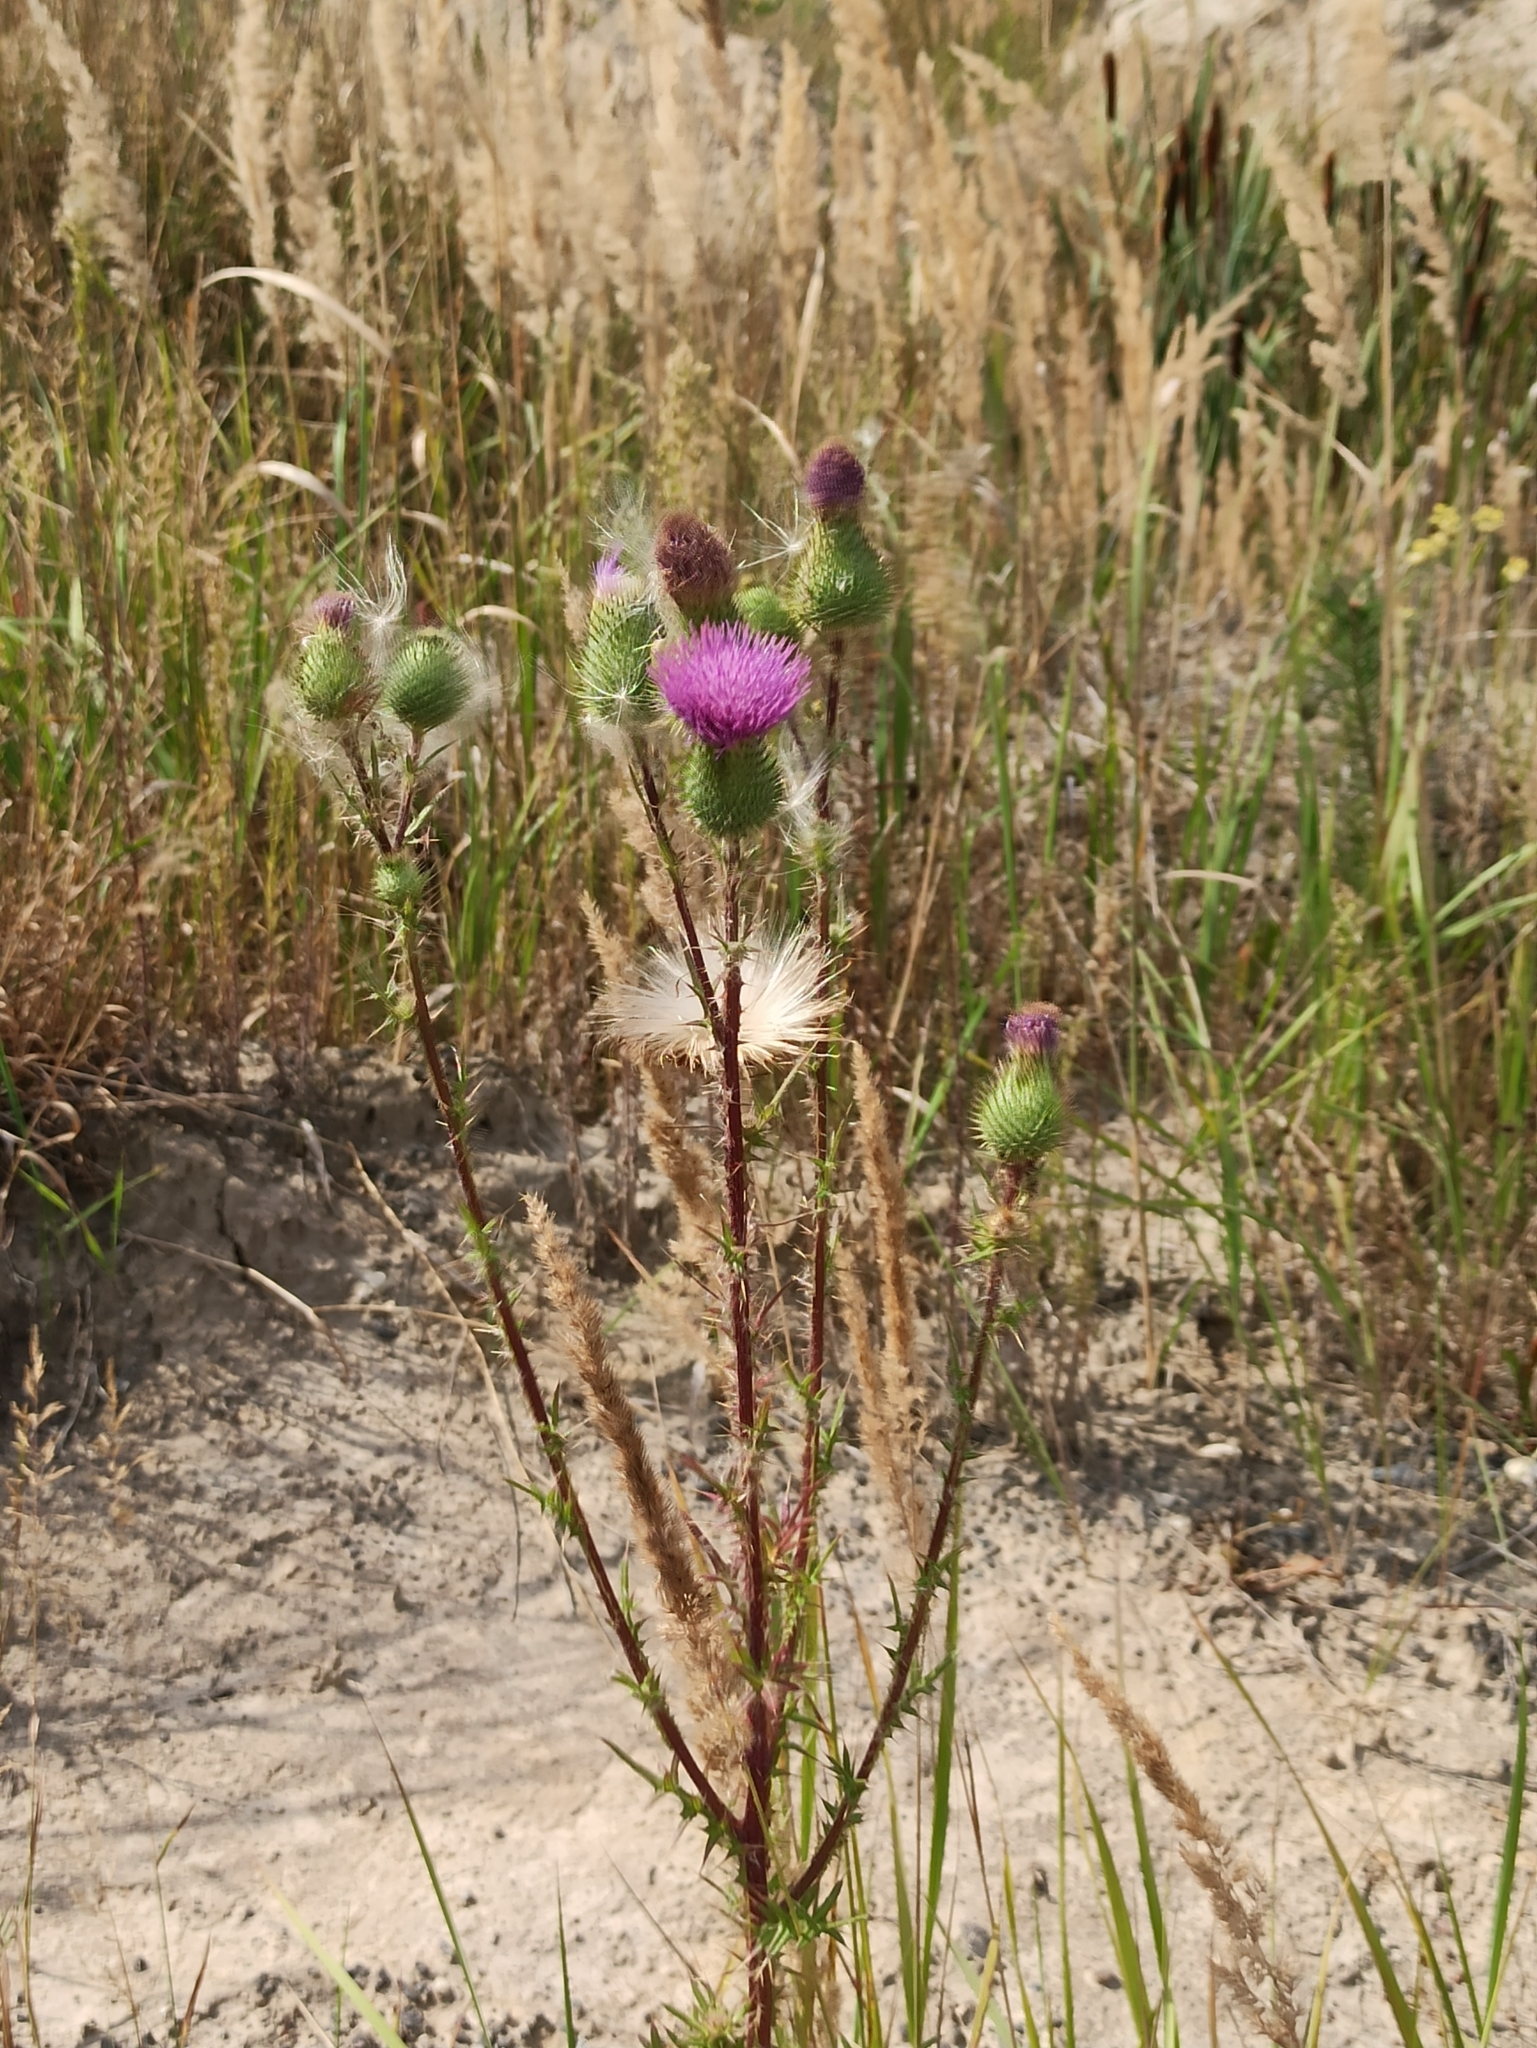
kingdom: Plantae
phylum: Tracheophyta
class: Magnoliopsida
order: Asterales
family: Asteraceae
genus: Cirsium
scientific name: Cirsium vulgare
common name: Bull thistle
